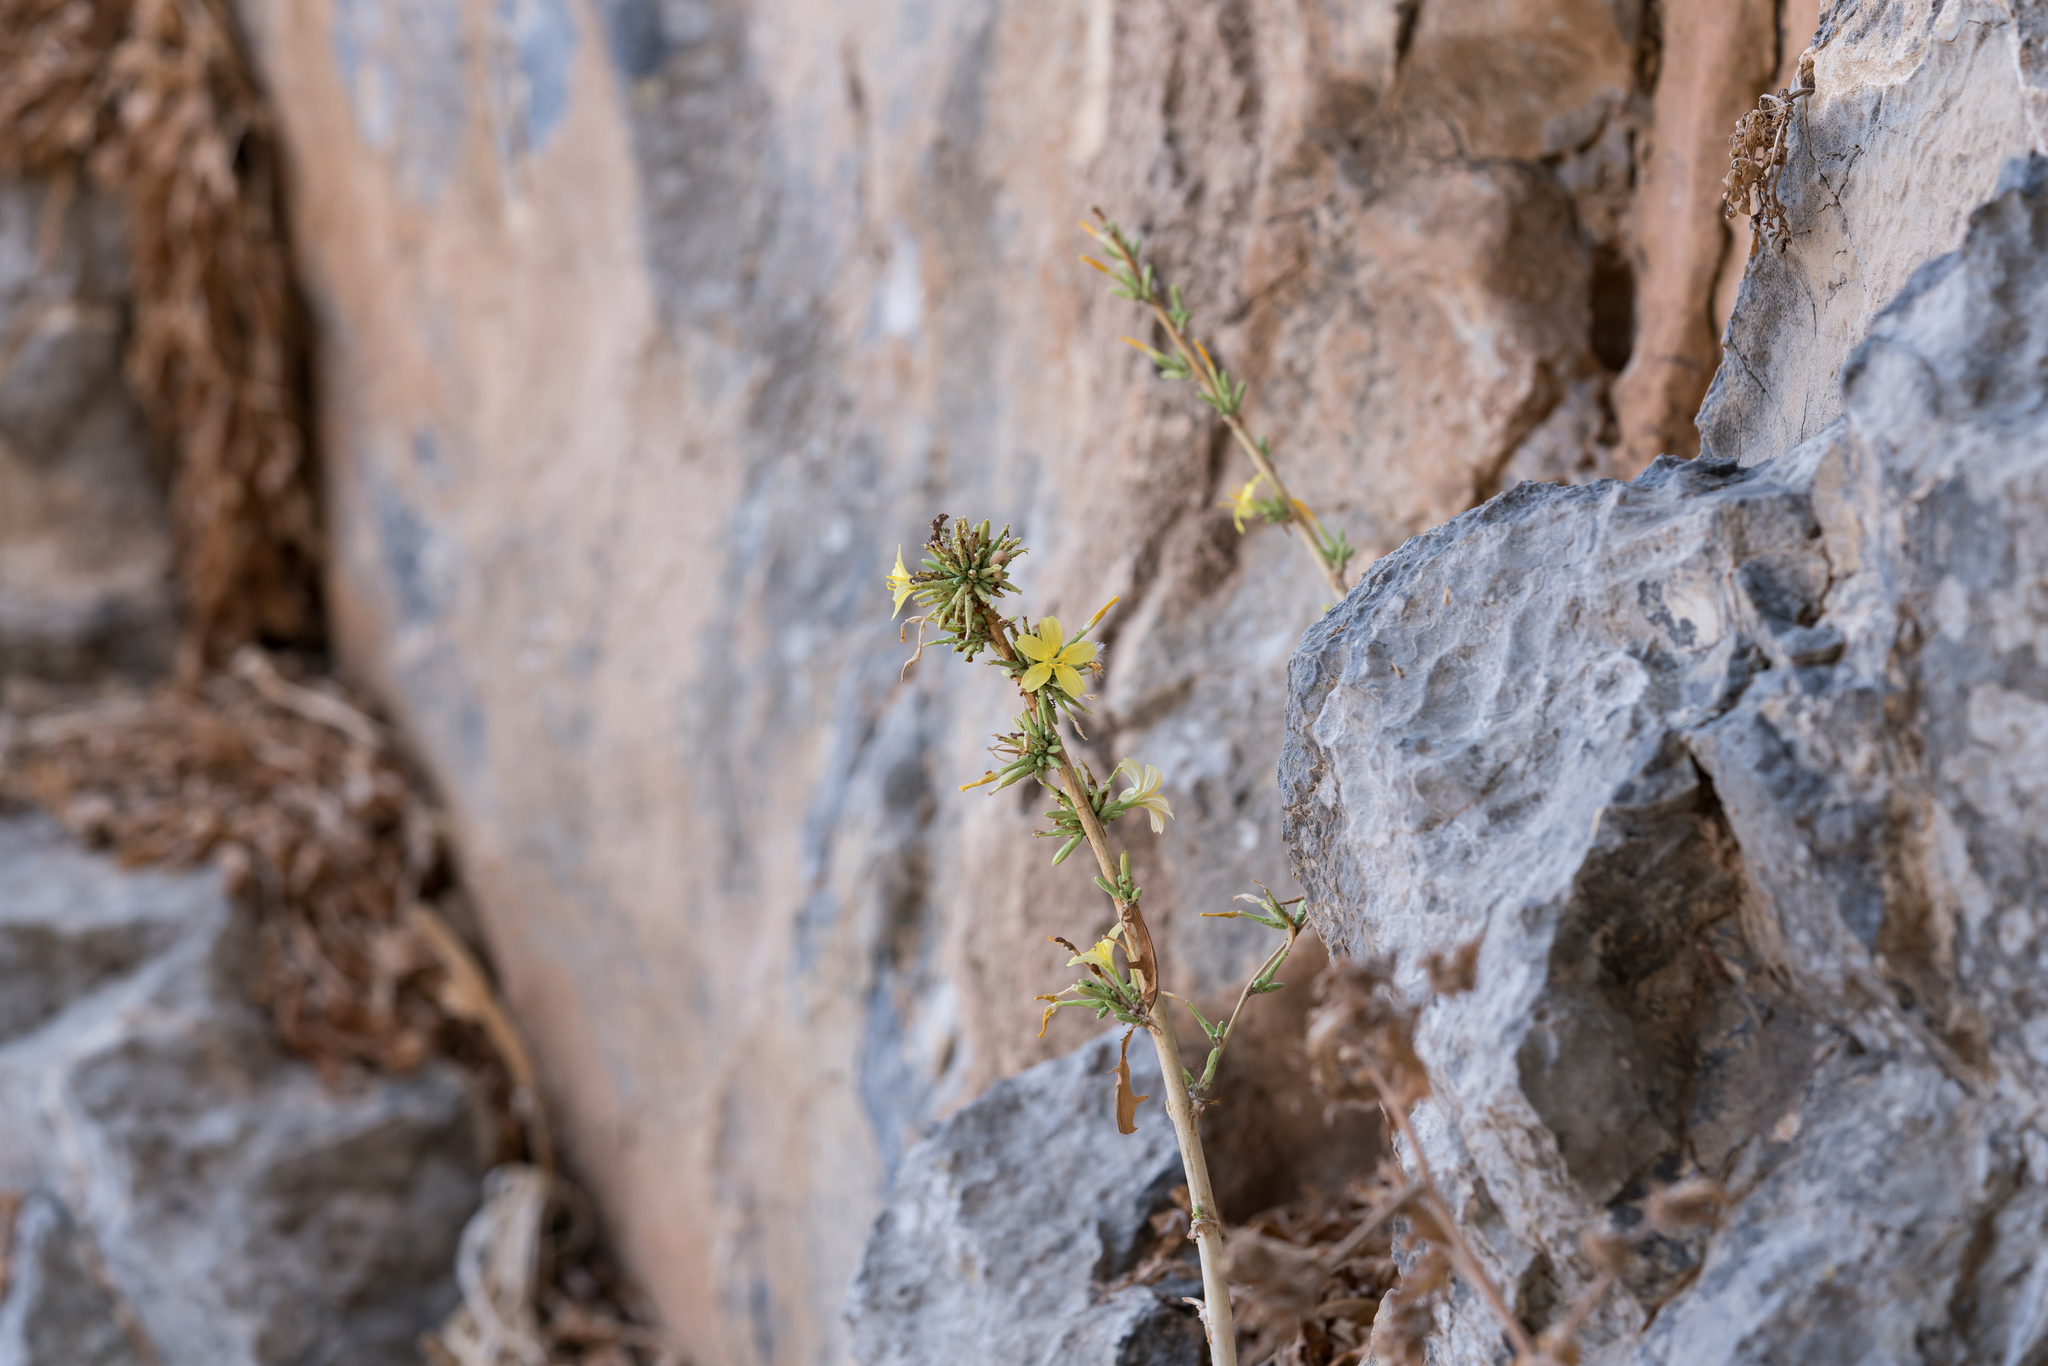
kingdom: Plantae
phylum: Tracheophyta
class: Magnoliopsida
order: Asterales
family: Asteraceae
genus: Lactuca
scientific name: Lactuca acanthifolia
